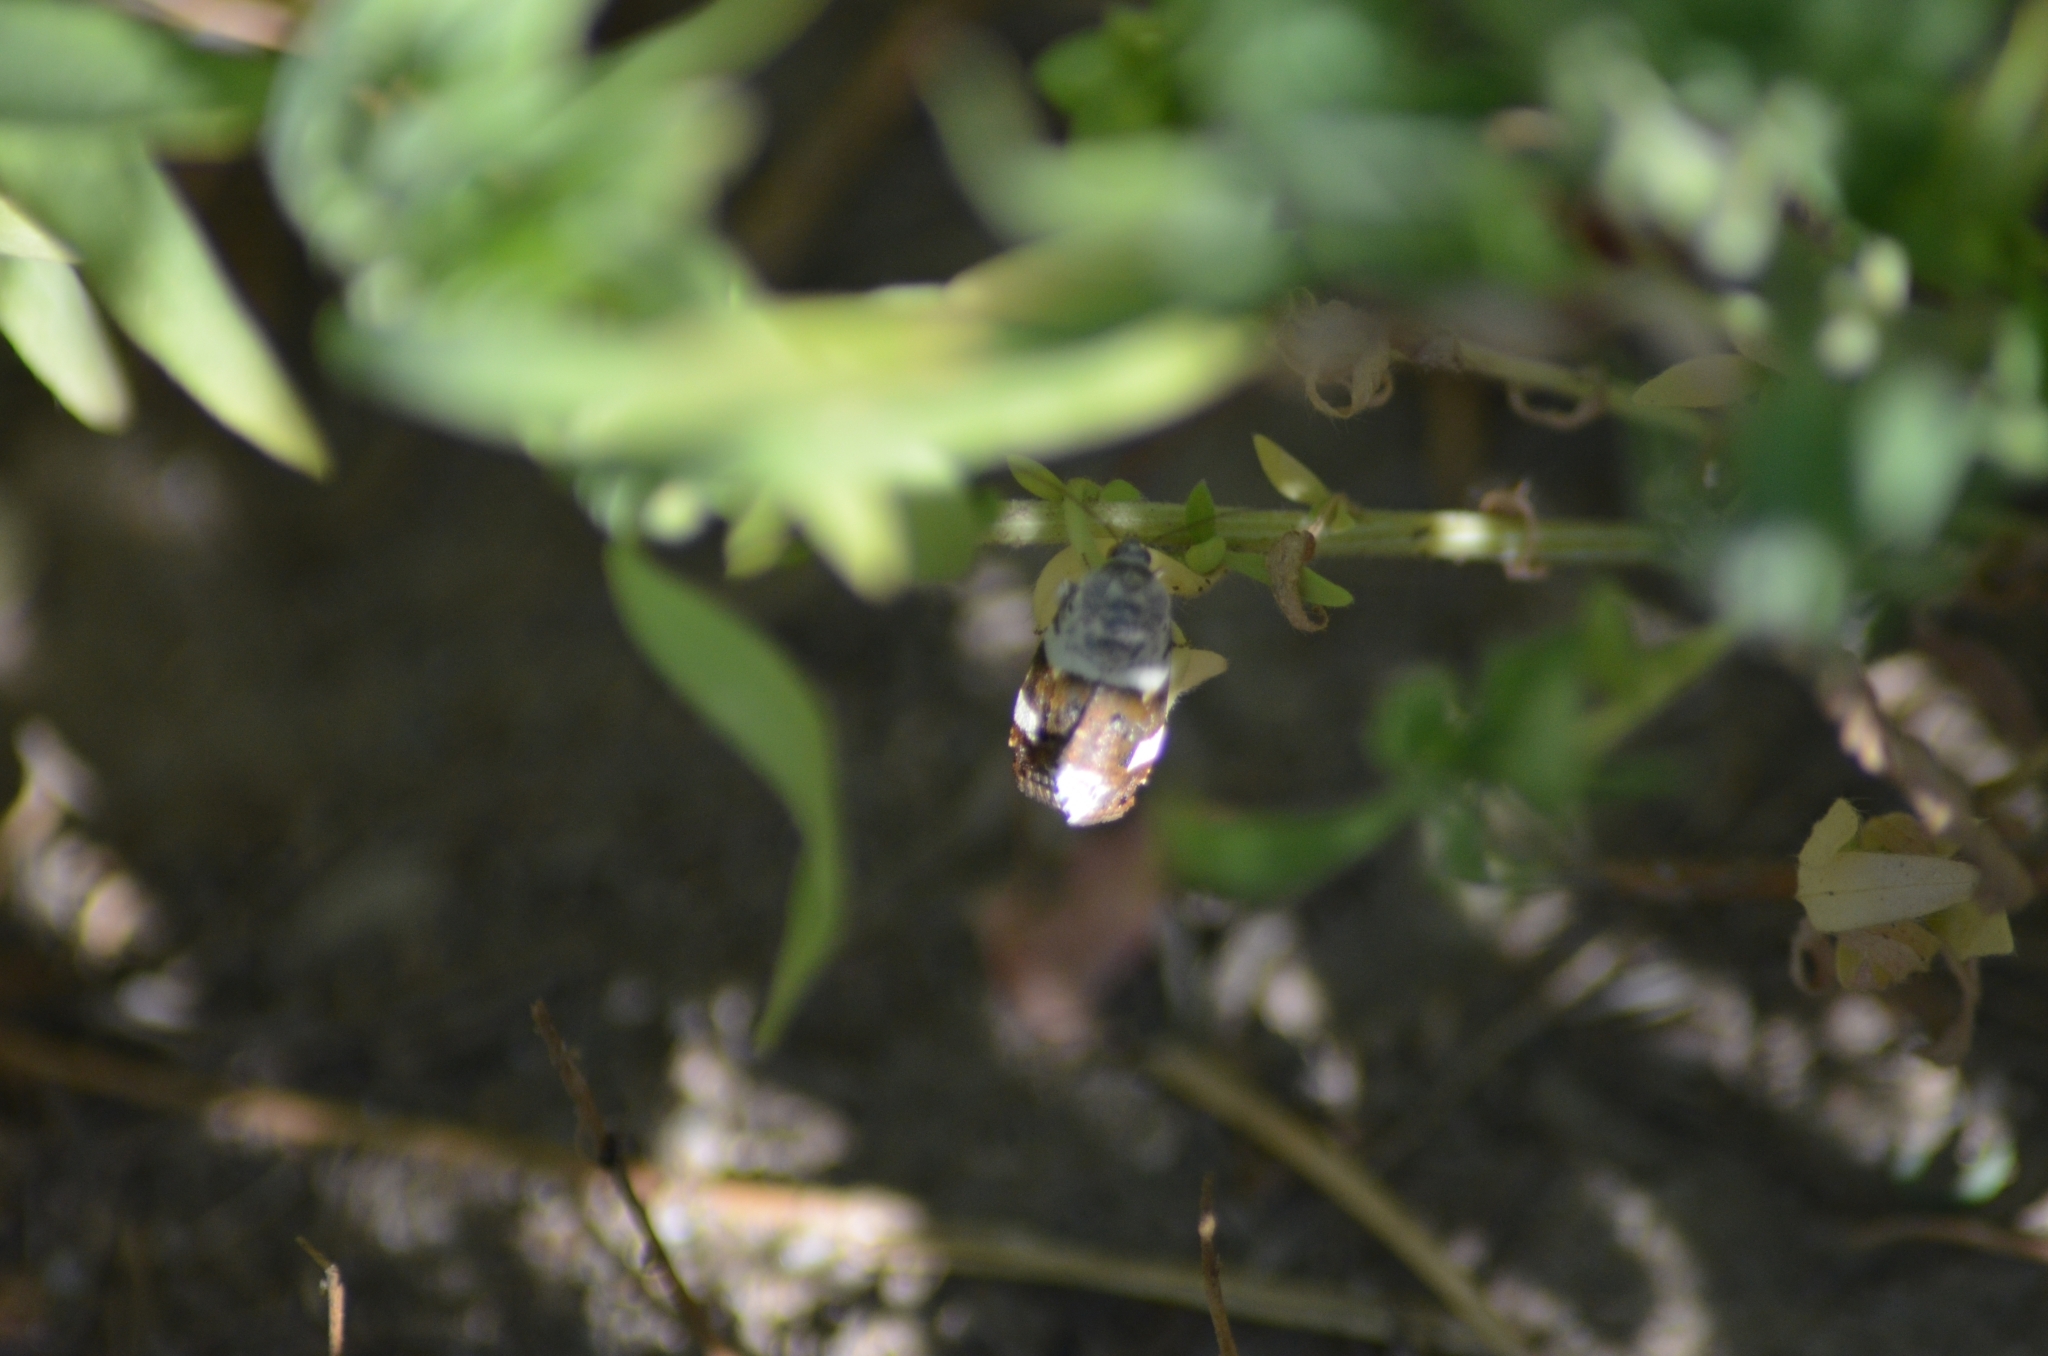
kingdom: Animalia
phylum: Arthropoda
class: Insecta
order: Lepidoptera
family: Noctuidae
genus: Acontia
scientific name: Acontia lucida
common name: Pale shoulder
